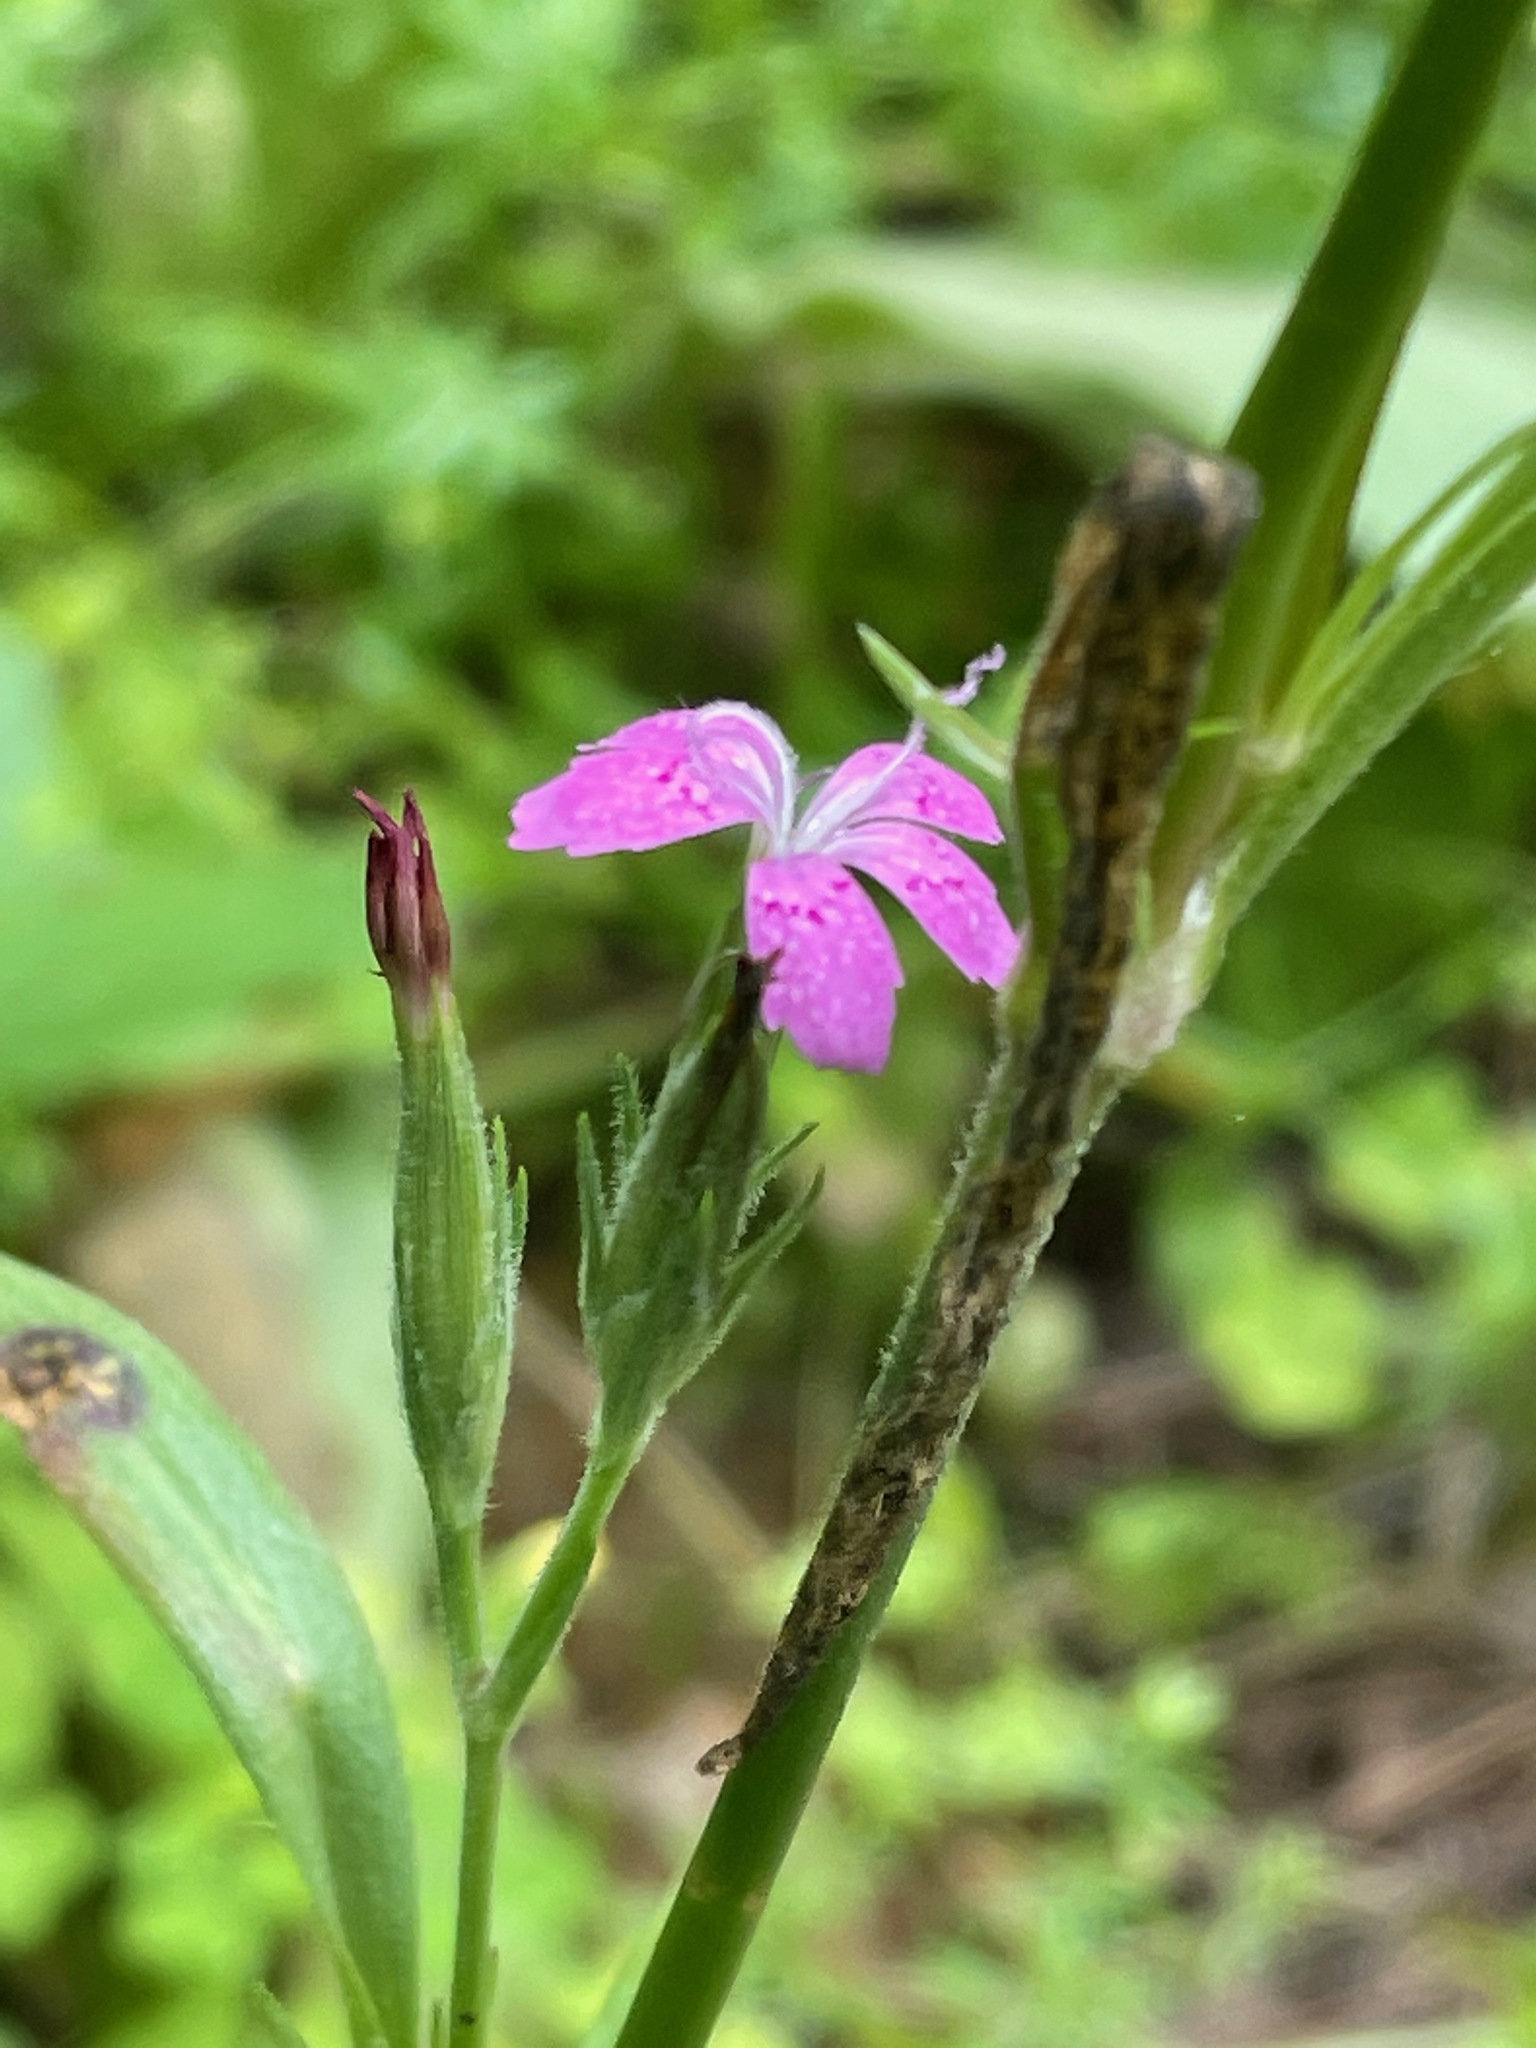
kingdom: Plantae
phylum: Tracheophyta
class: Magnoliopsida
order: Caryophyllales
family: Caryophyllaceae
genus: Dianthus
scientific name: Dianthus armeria
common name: Deptford pink
